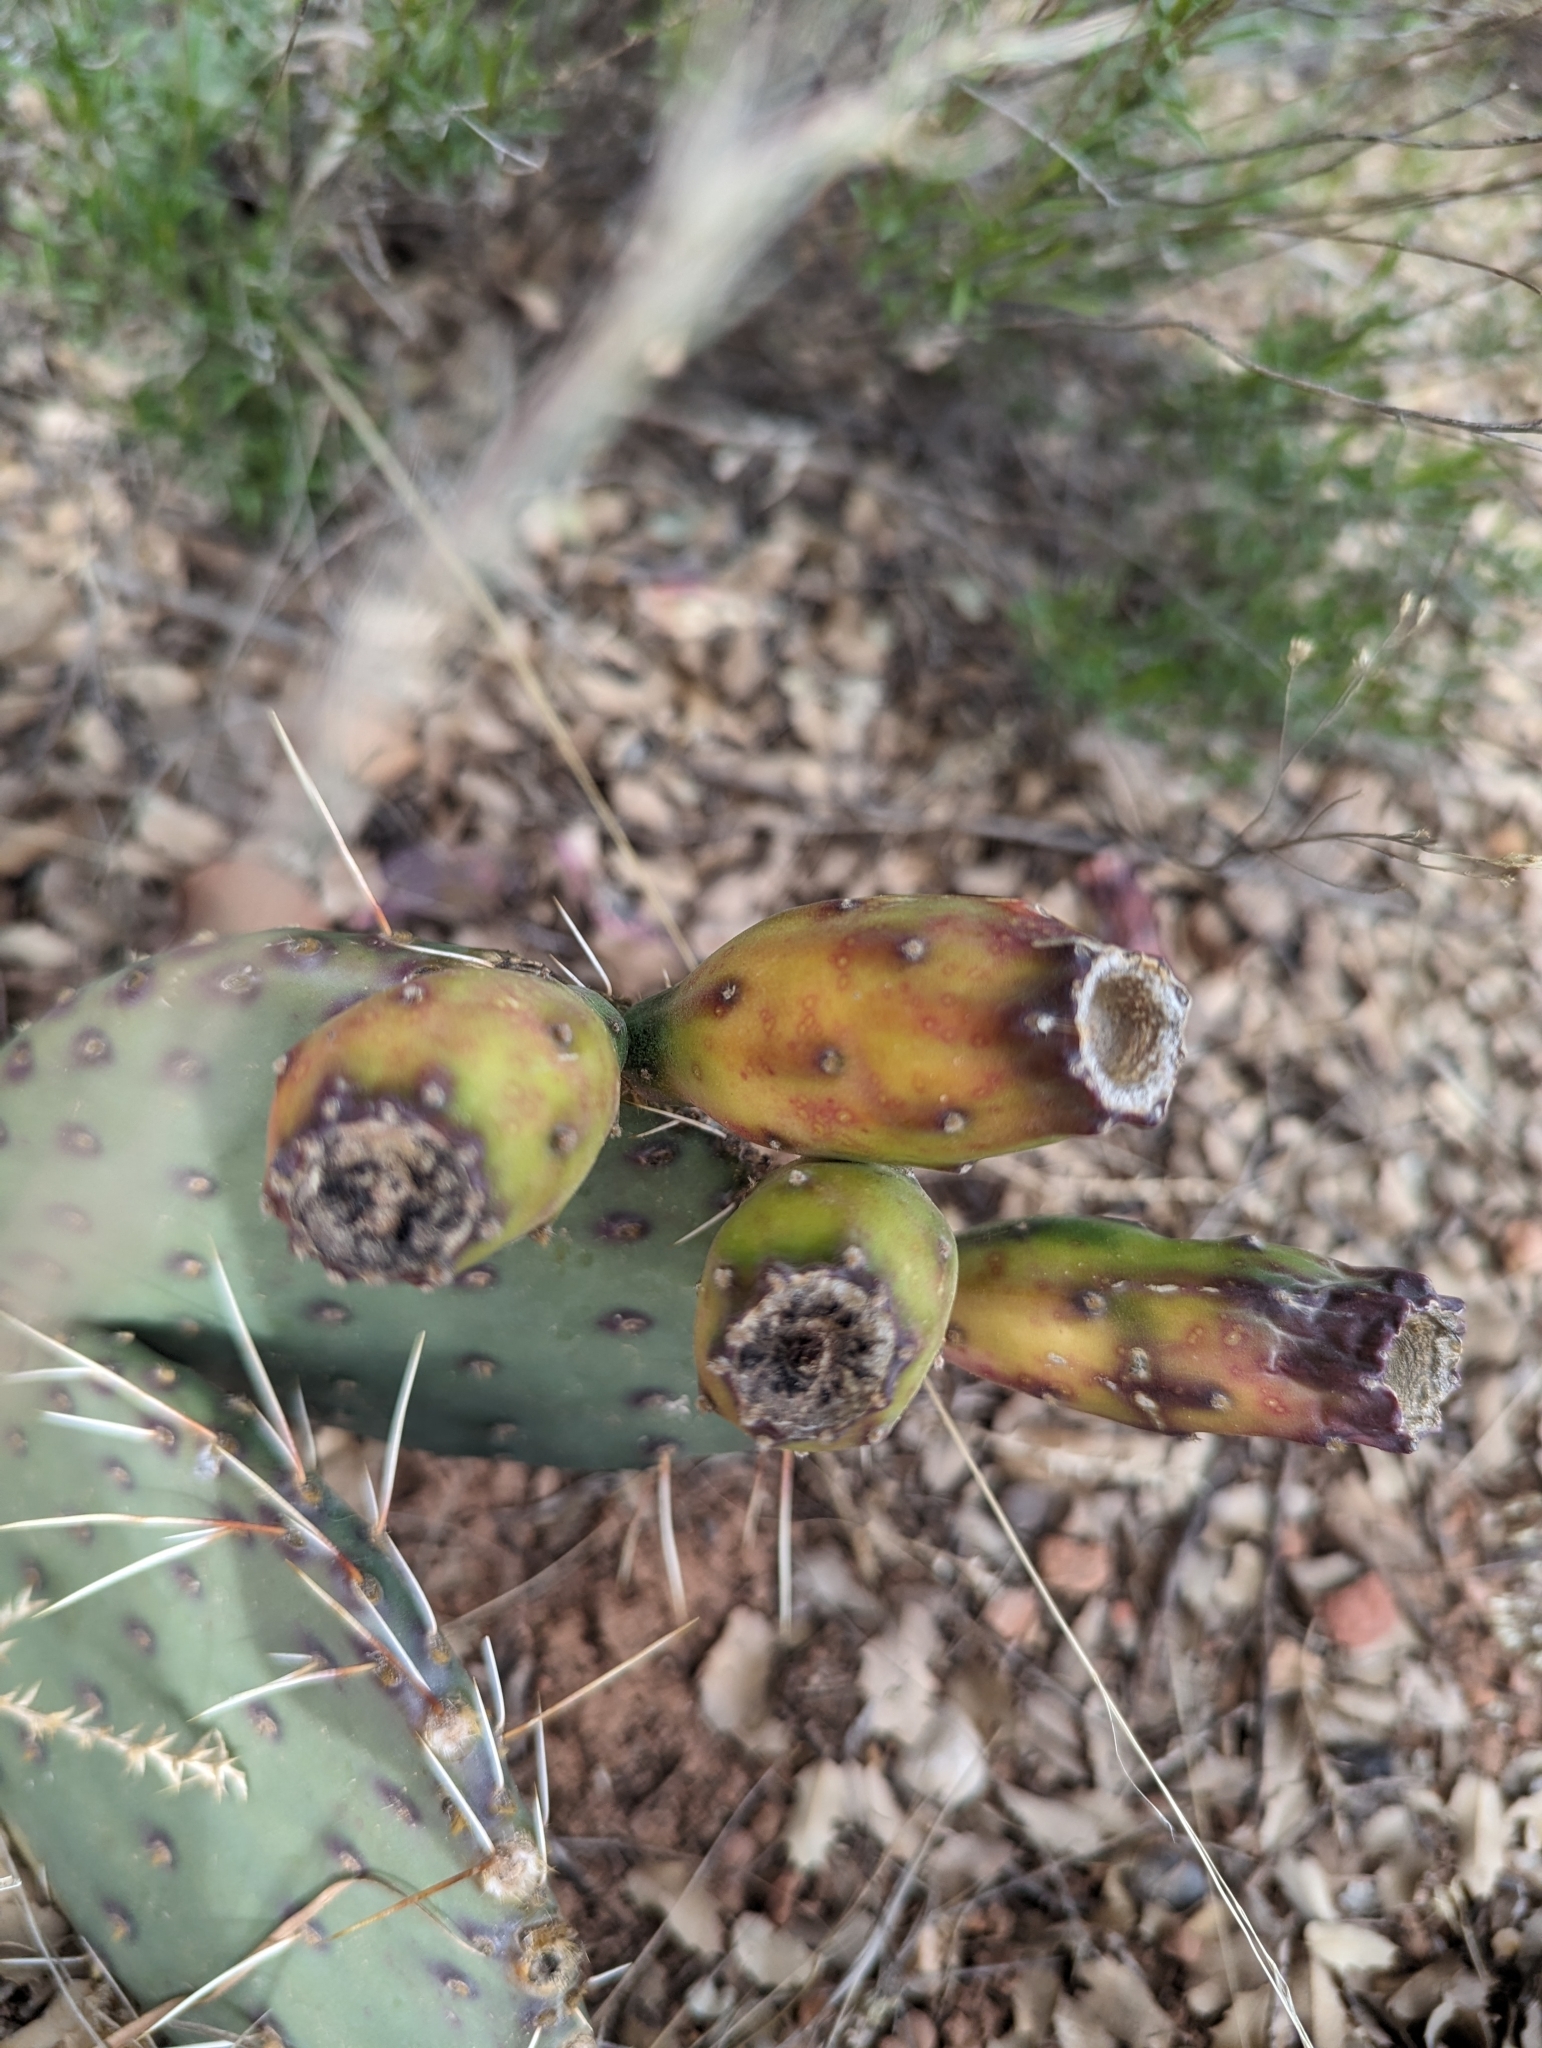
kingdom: Plantae
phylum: Tracheophyta
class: Magnoliopsida
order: Caryophyllales
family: Cactaceae
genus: Opuntia
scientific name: Opuntia phaeacantha
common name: New mexico prickly-pear
